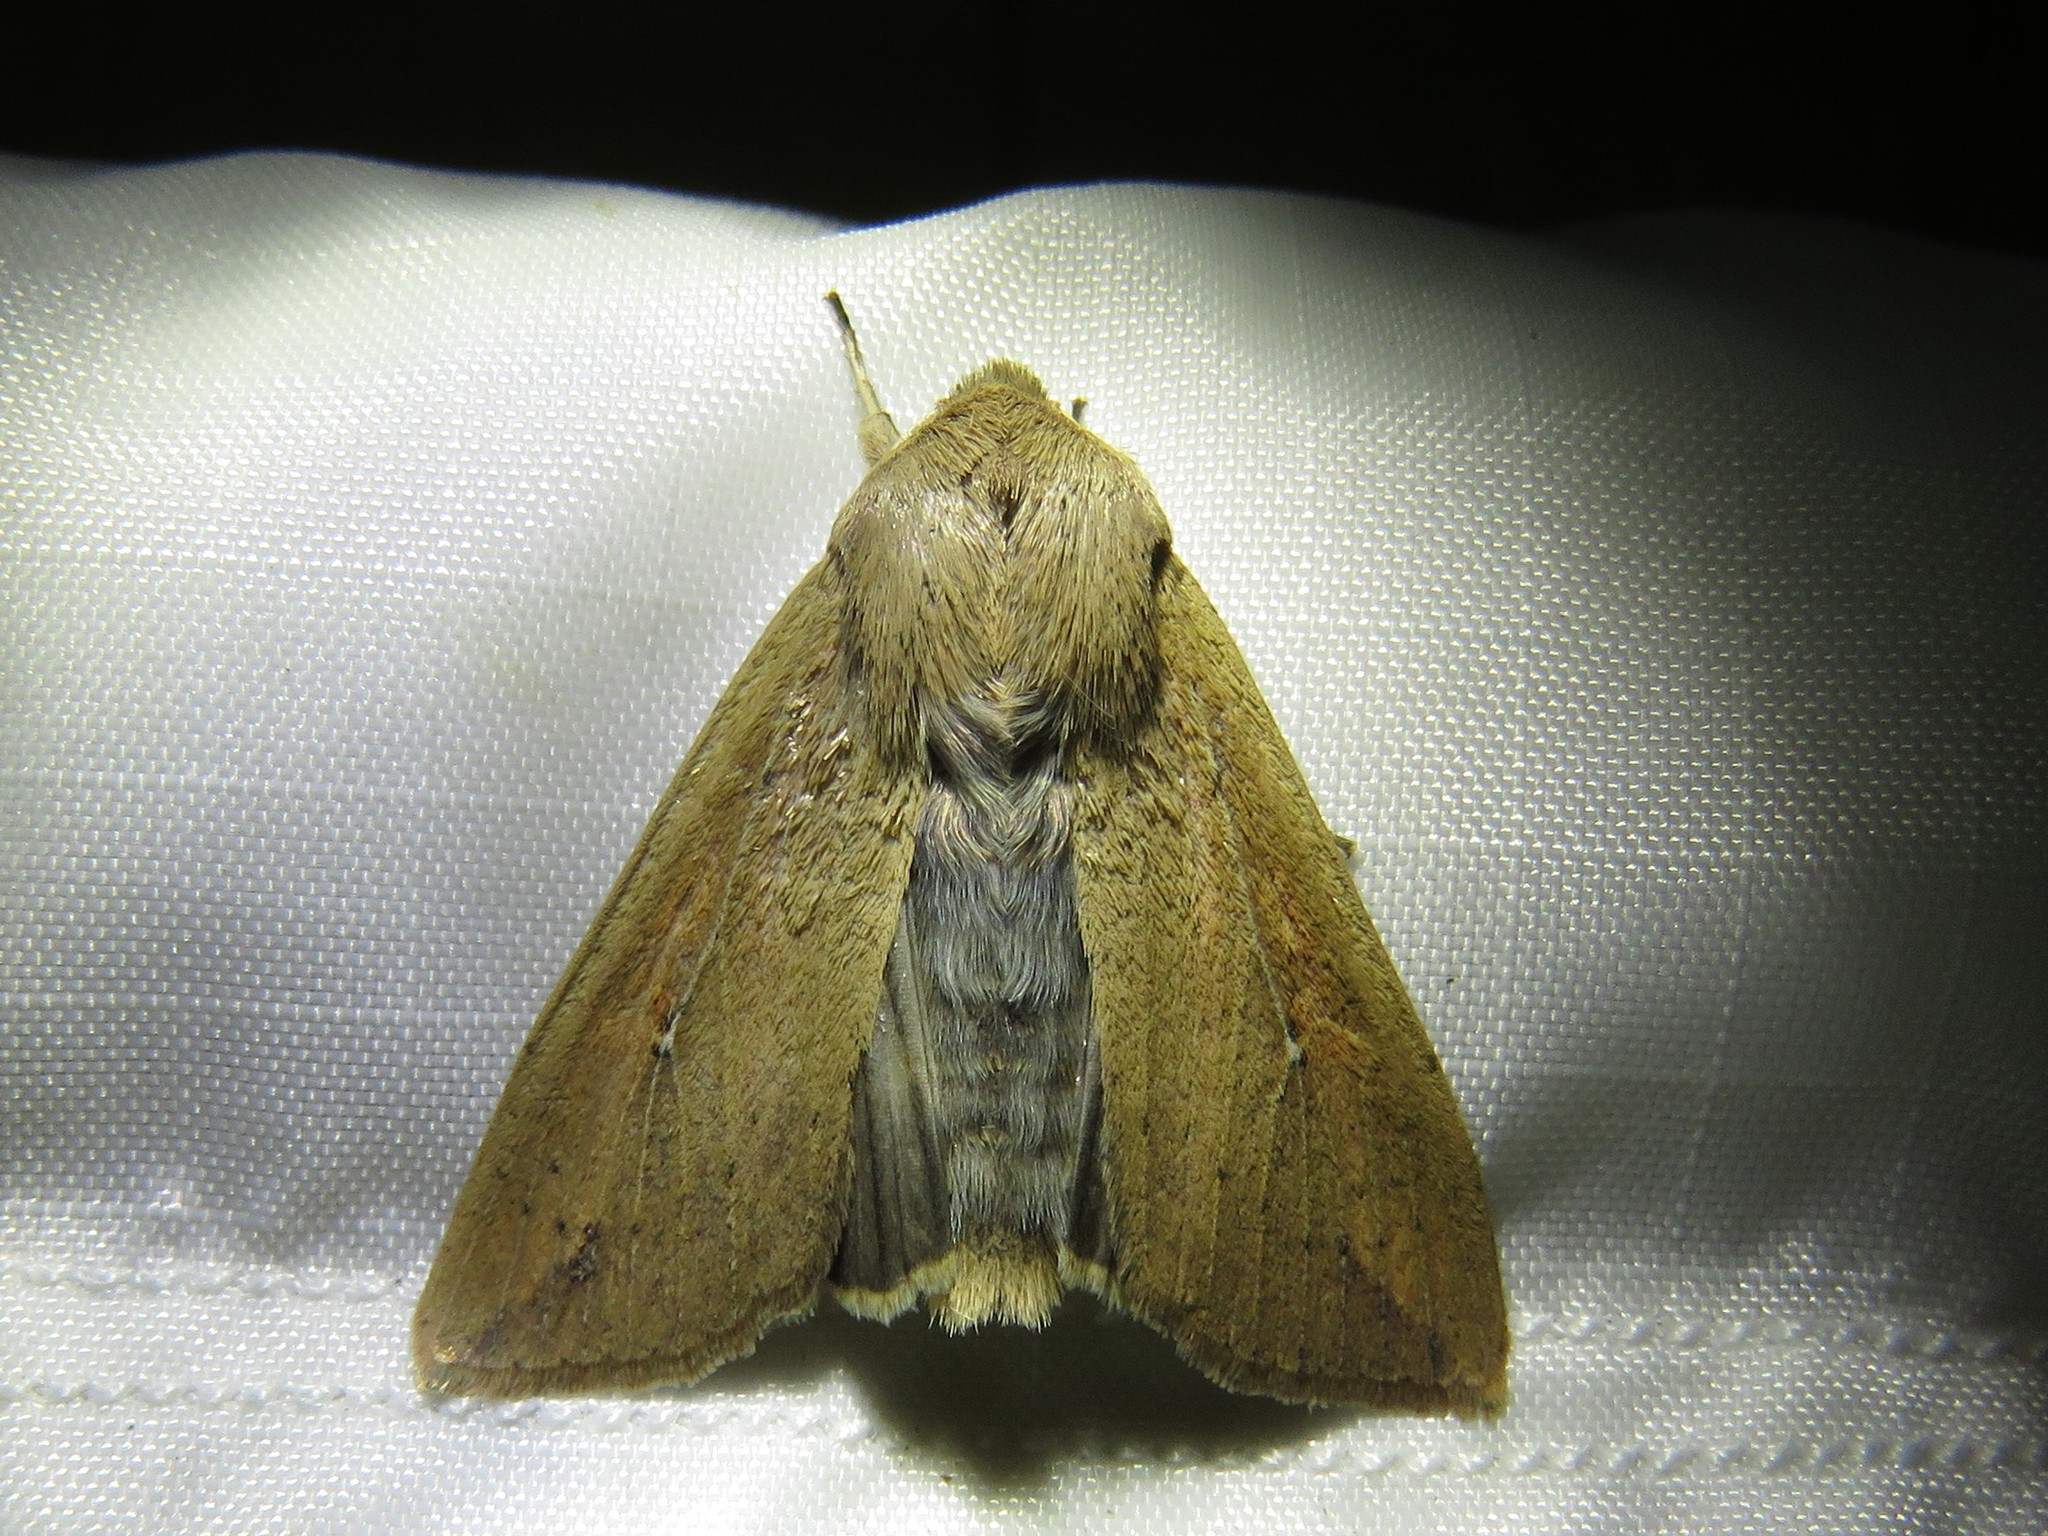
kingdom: Animalia
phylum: Arthropoda
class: Insecta
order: Lepidoptera
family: Noctuidae
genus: Mythimna
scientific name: Mythimna unipuncta
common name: White-speck
